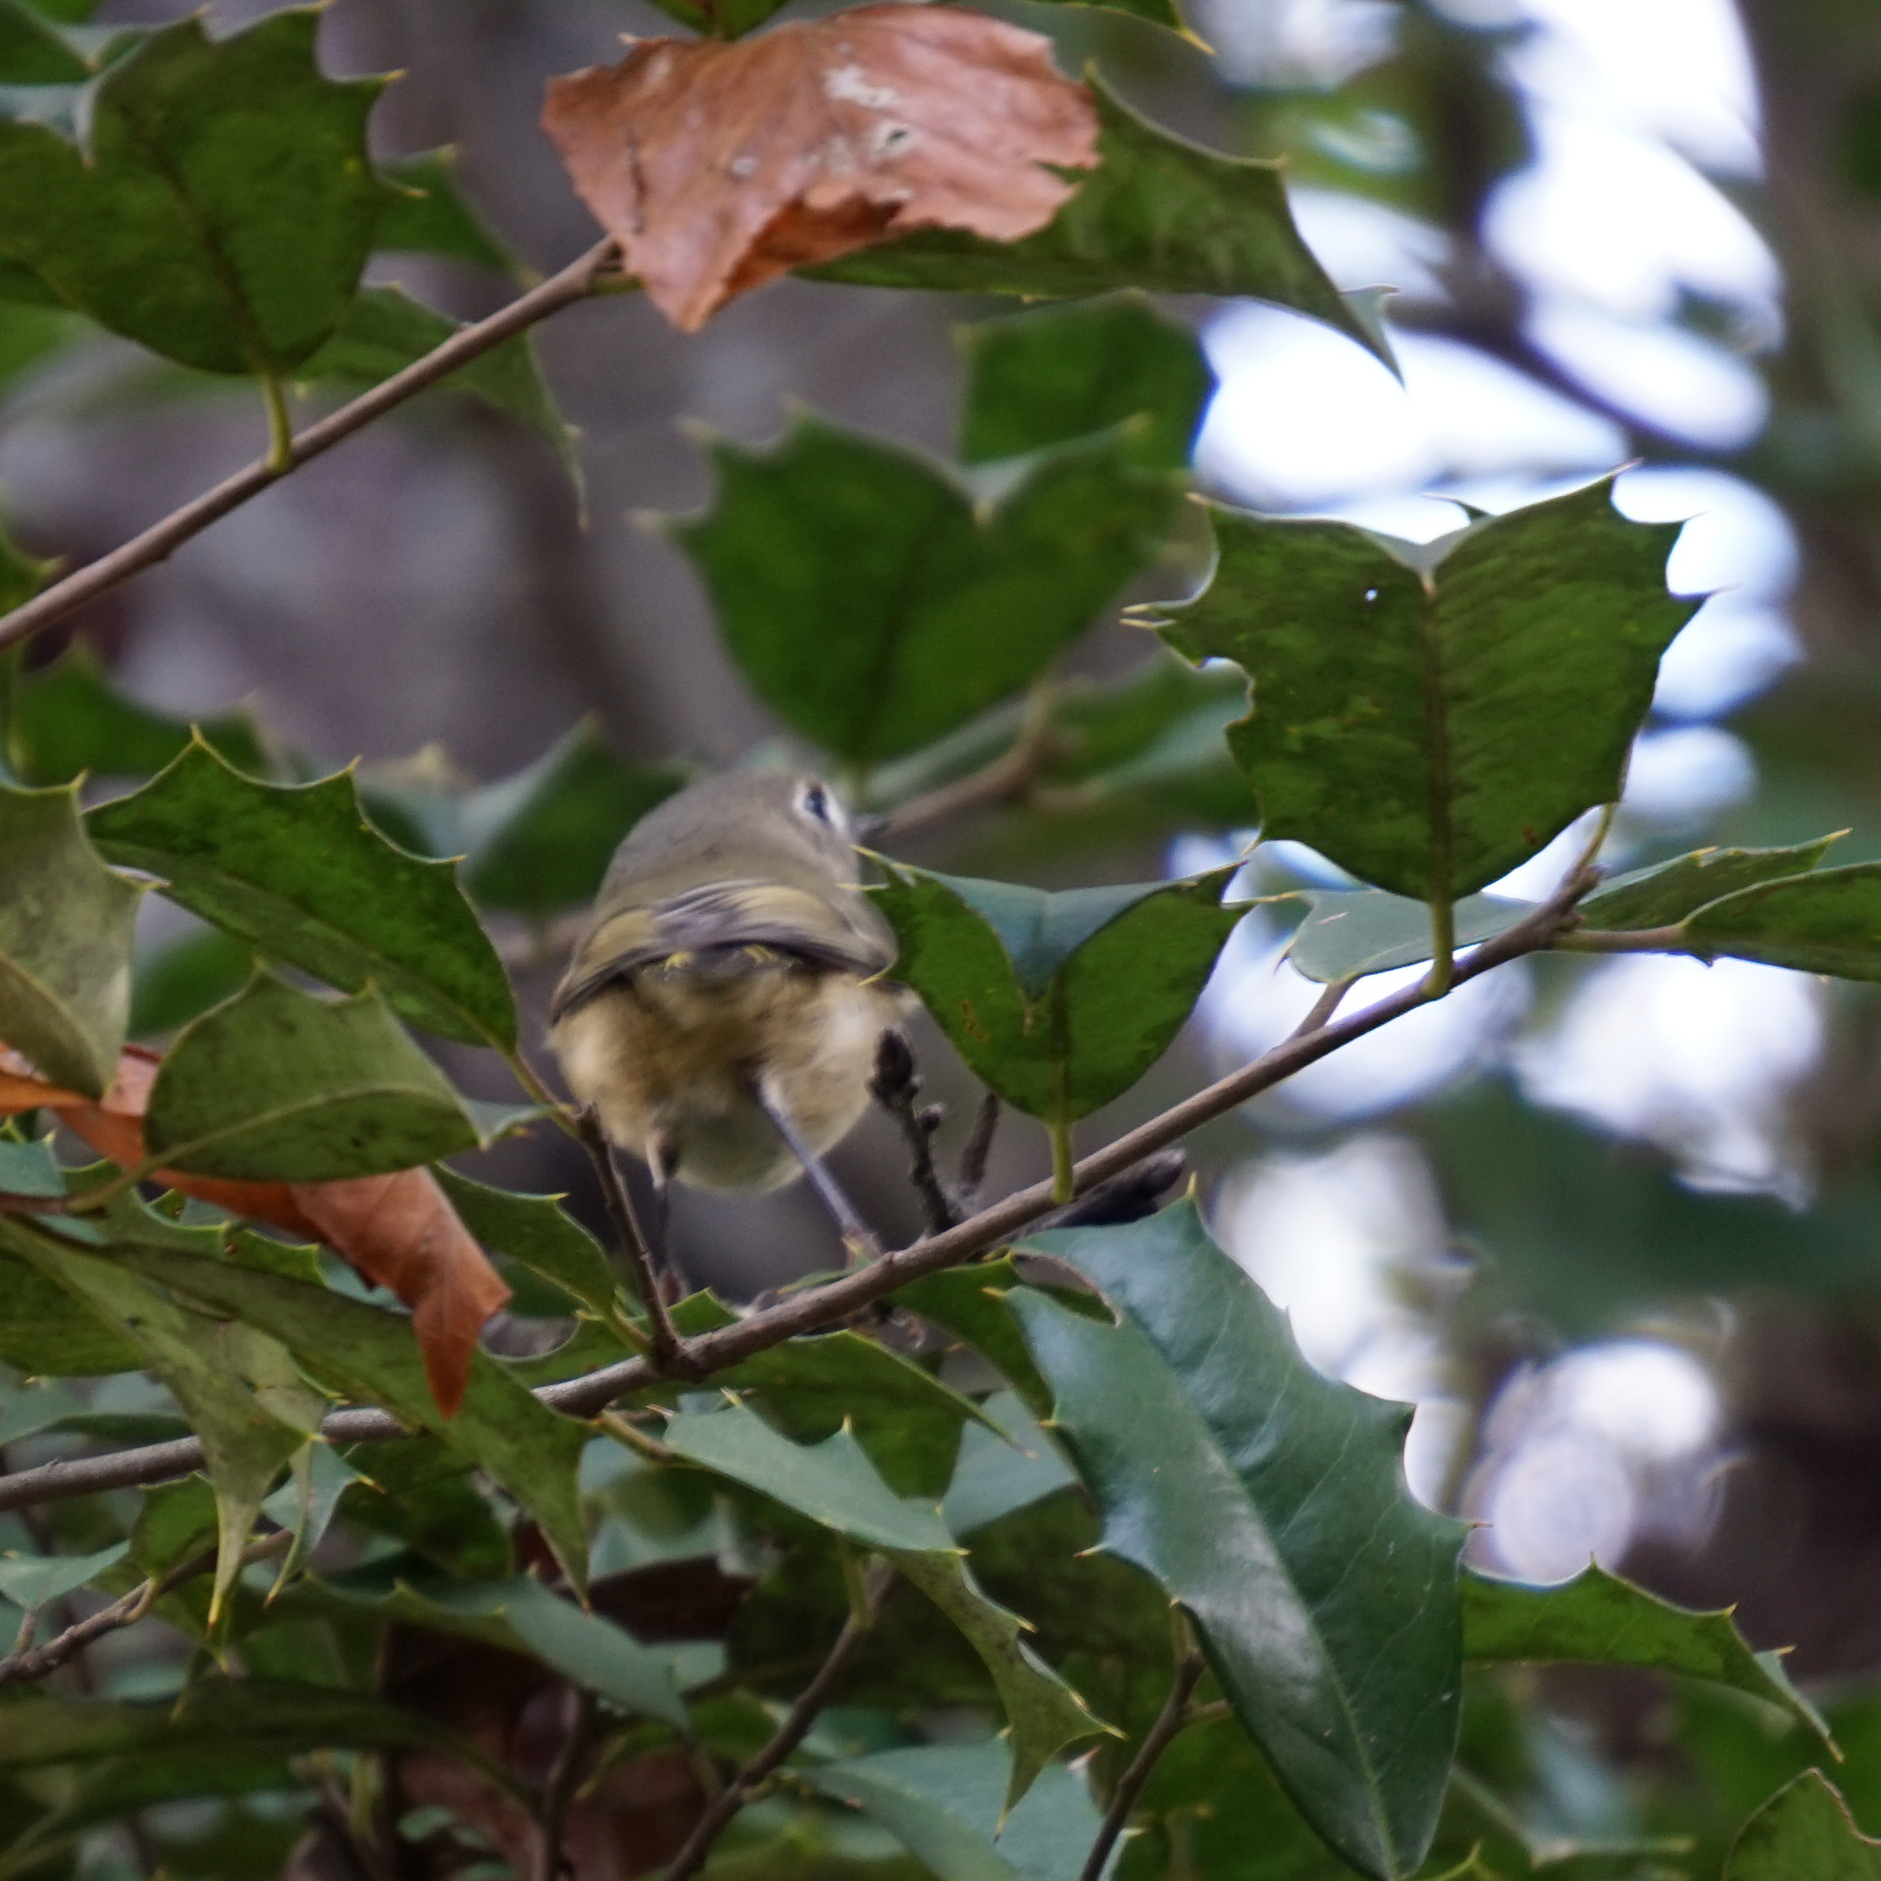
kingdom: Animalia
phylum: Chordata
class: Aves
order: Passeriformes
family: Regulidae
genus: Regulus
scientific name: Regulus calendula
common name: Ruby-crowned kinglet
